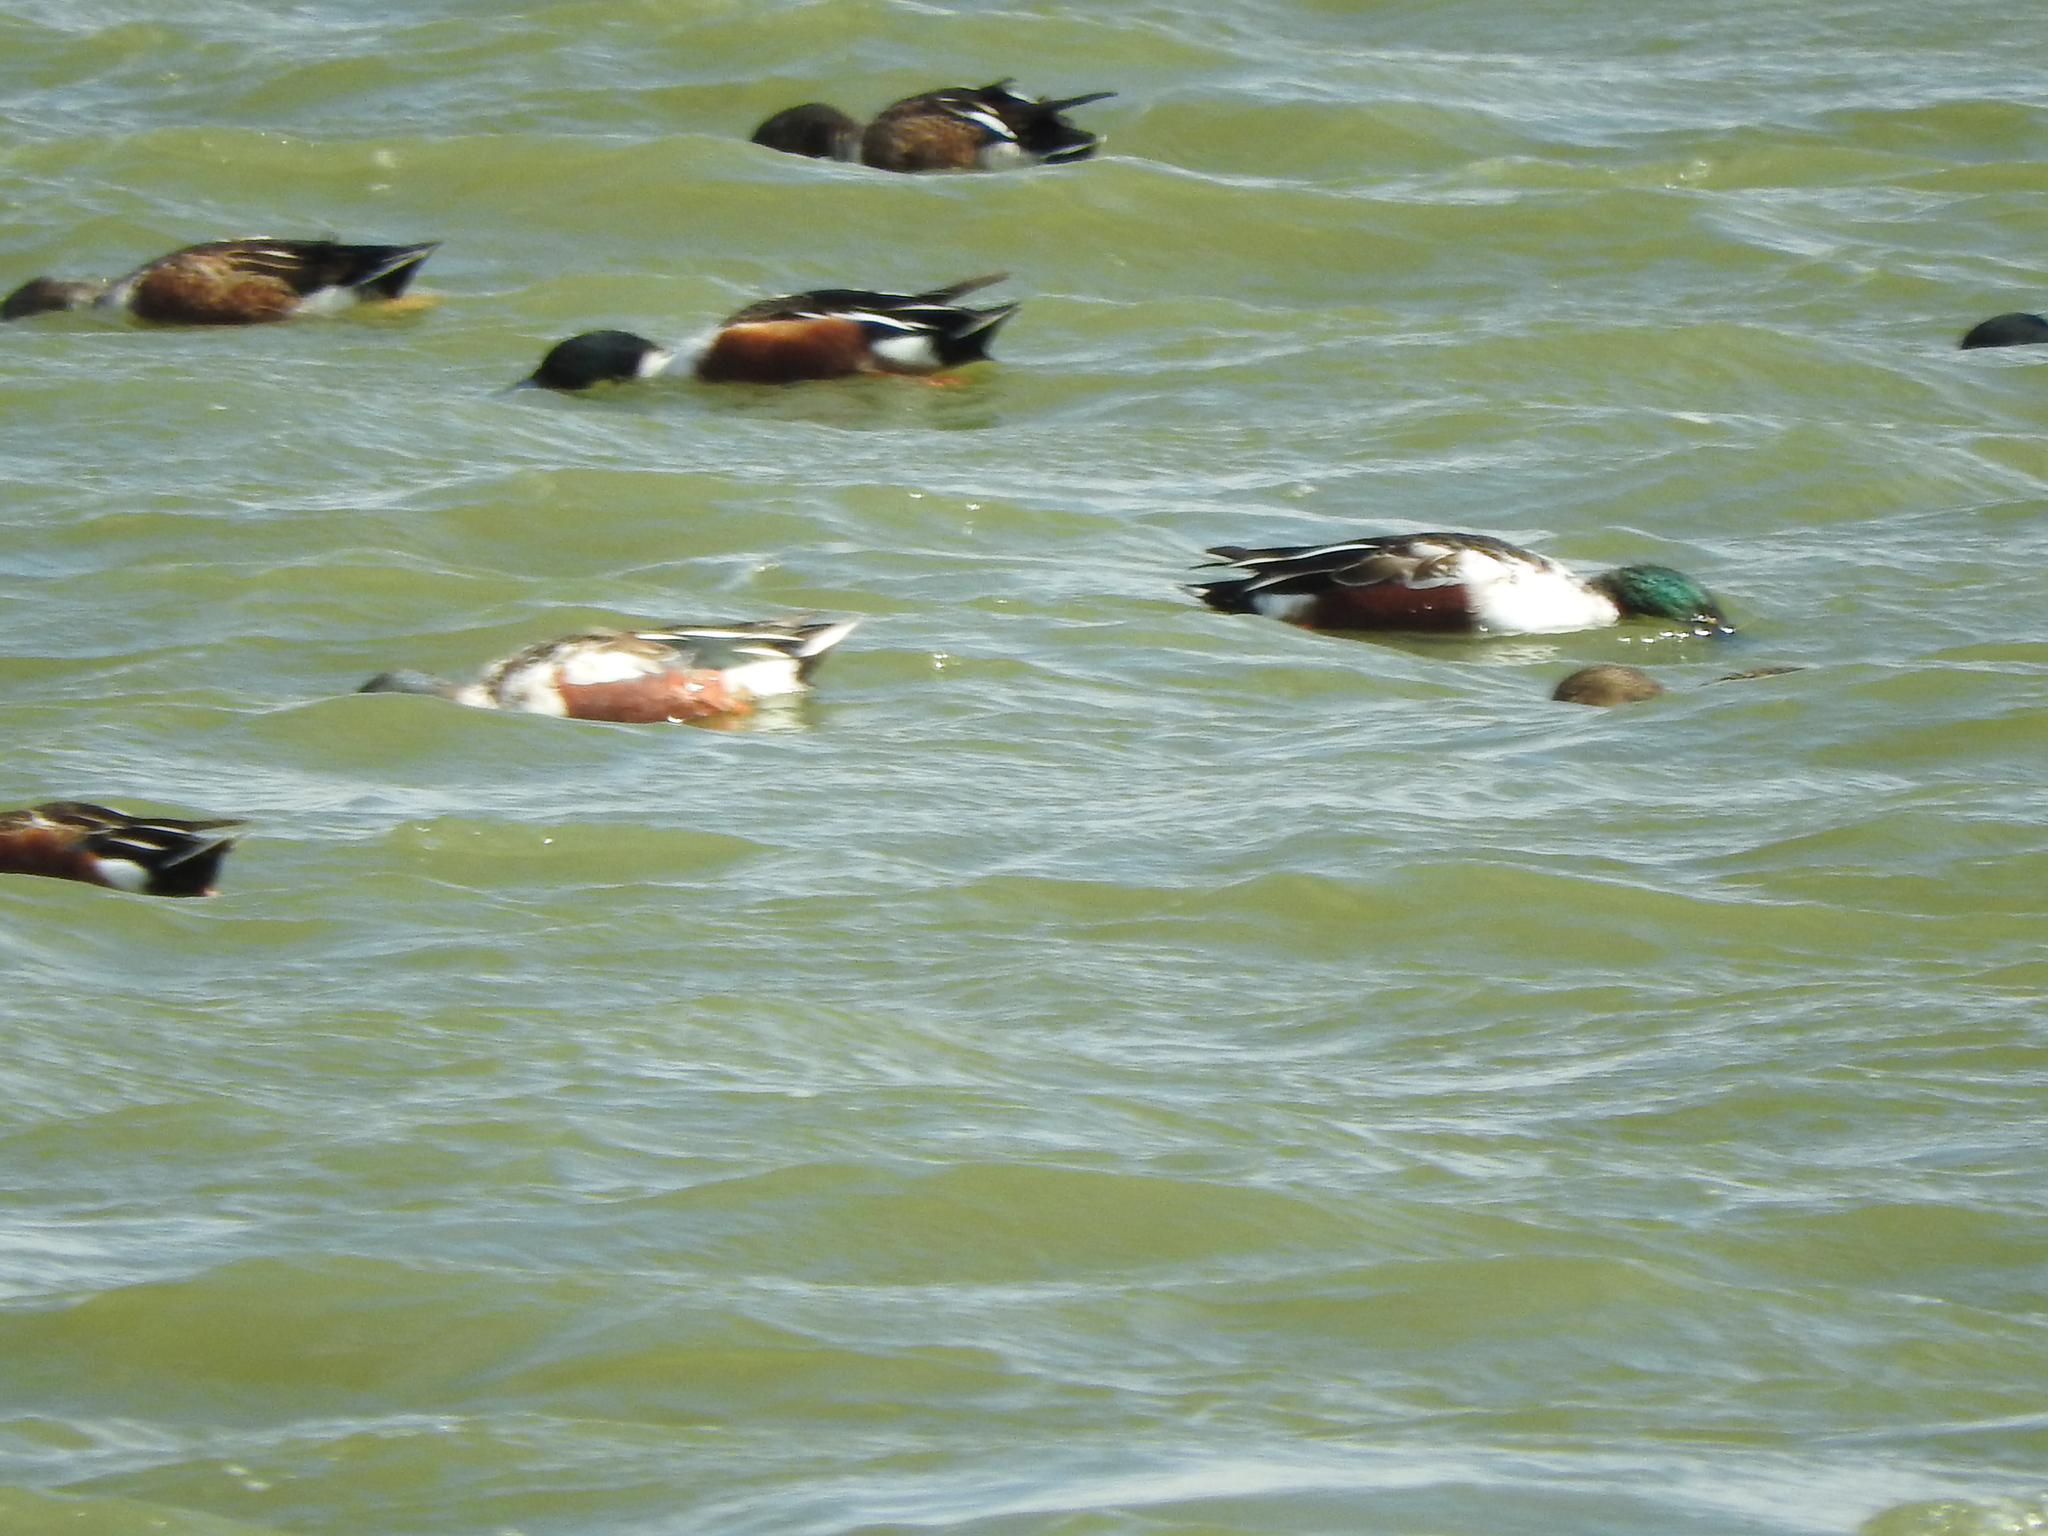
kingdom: Animalia
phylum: Chordata
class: Aves
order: Anseriformes
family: Anatidae
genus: Spatula
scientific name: Spatula clypeata
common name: Northern shoveler
